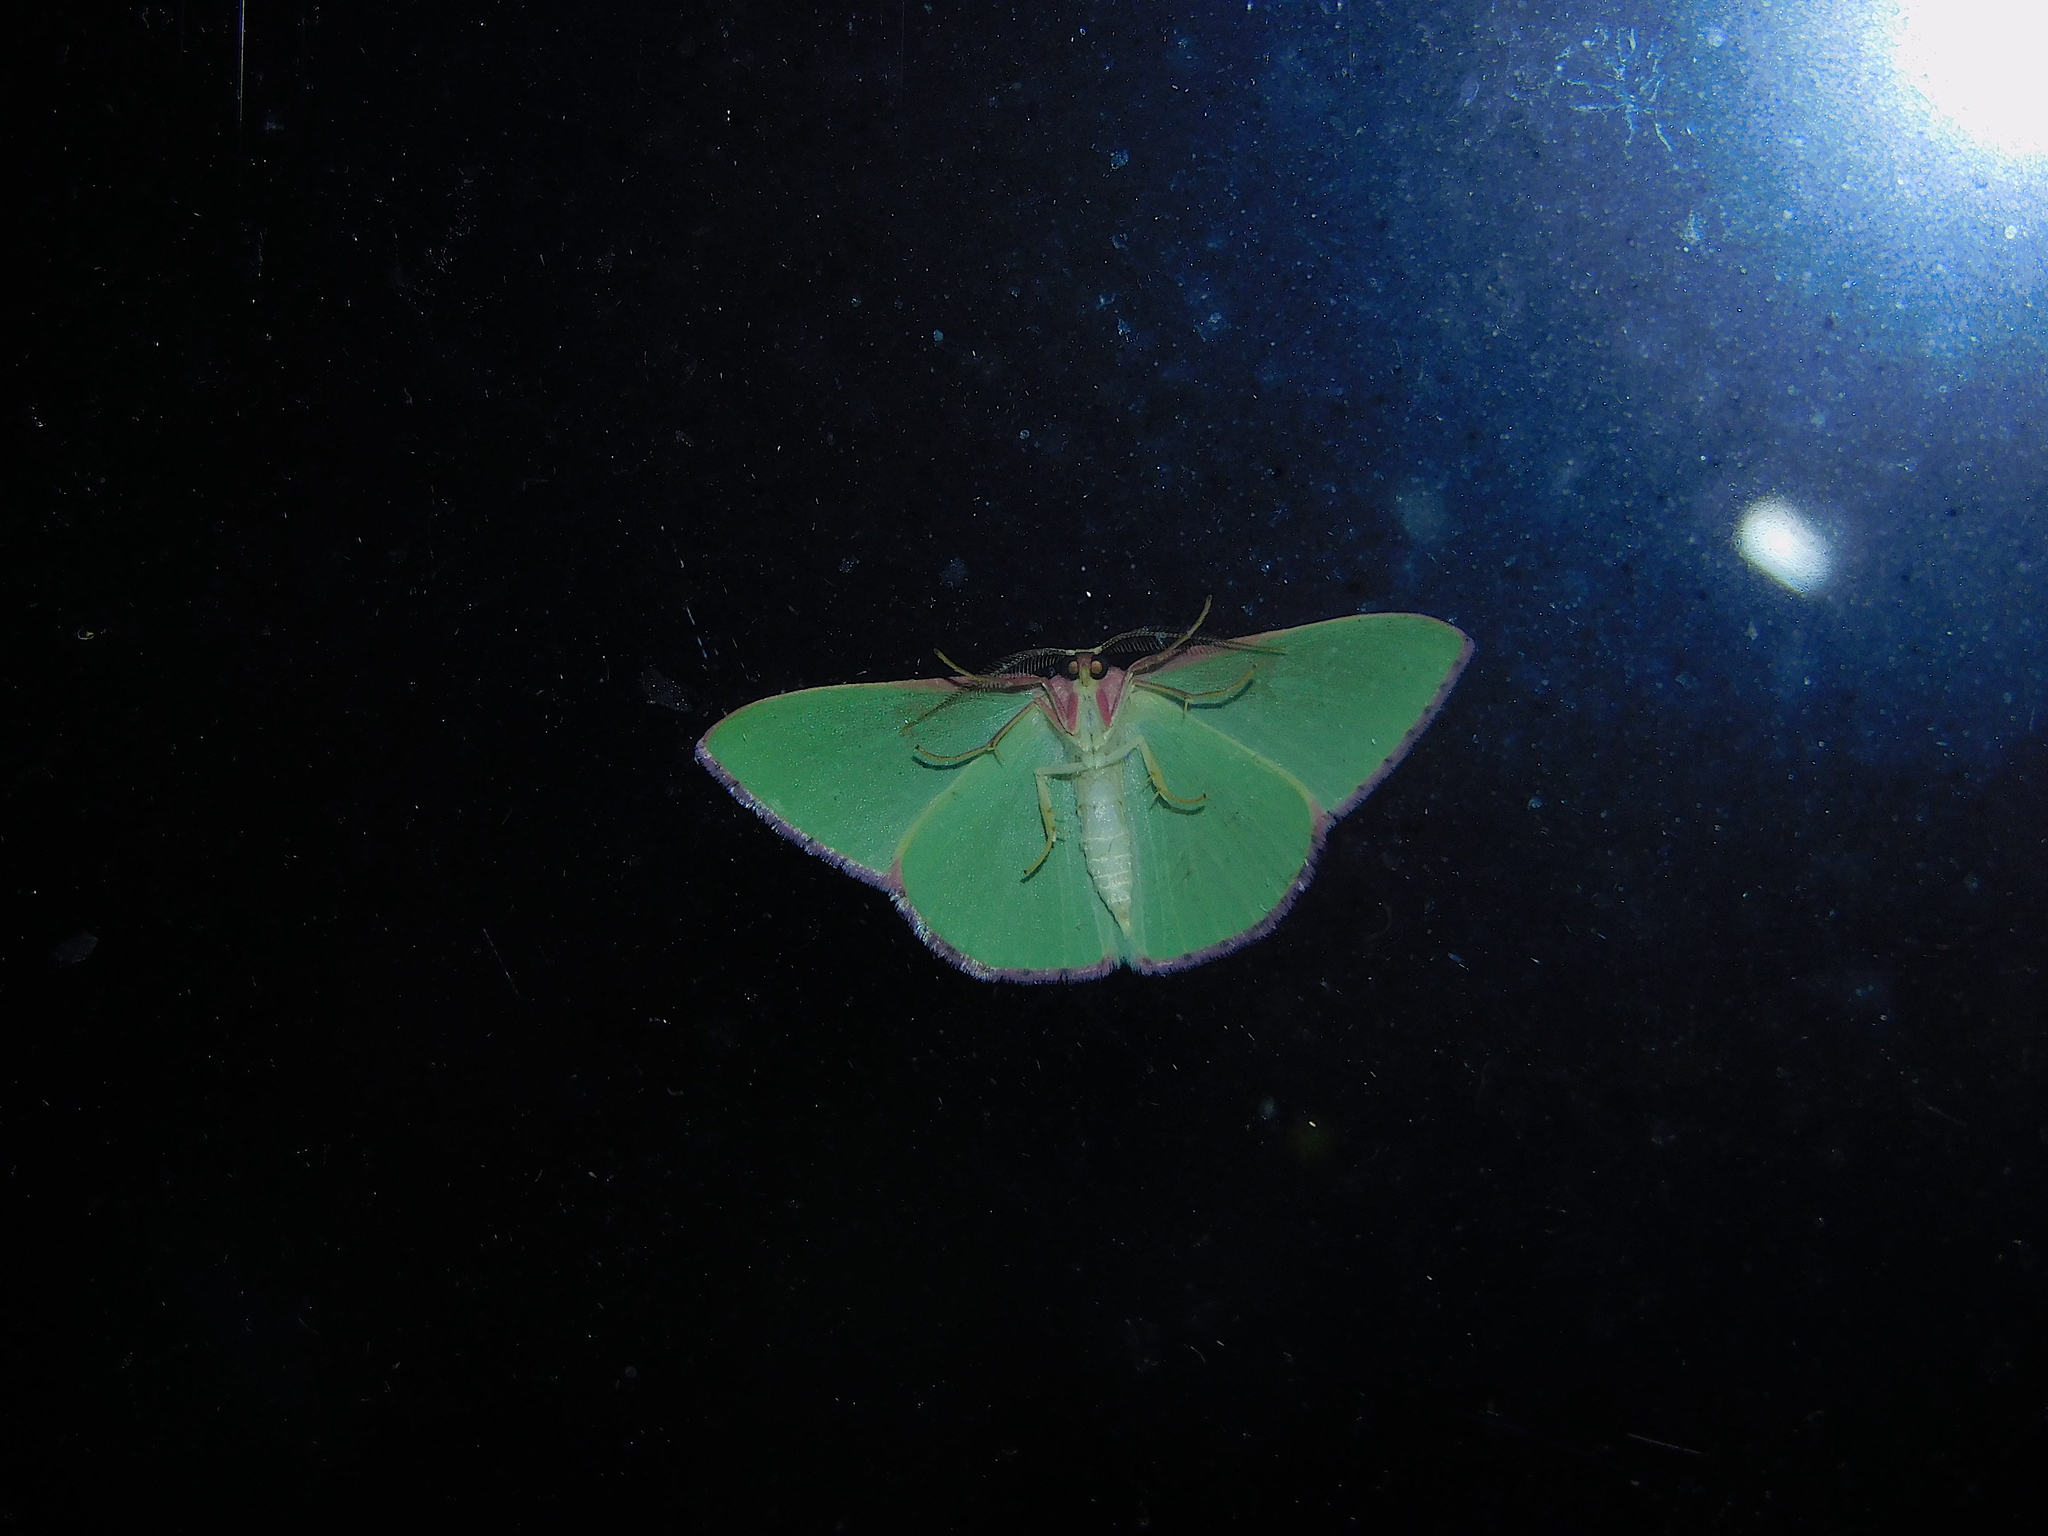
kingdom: Animalia
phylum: Arthropoda
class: Insecta
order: Lepidoptera
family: Geometridae
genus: Prasinocyma
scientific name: Prasinocyma semicrocea
